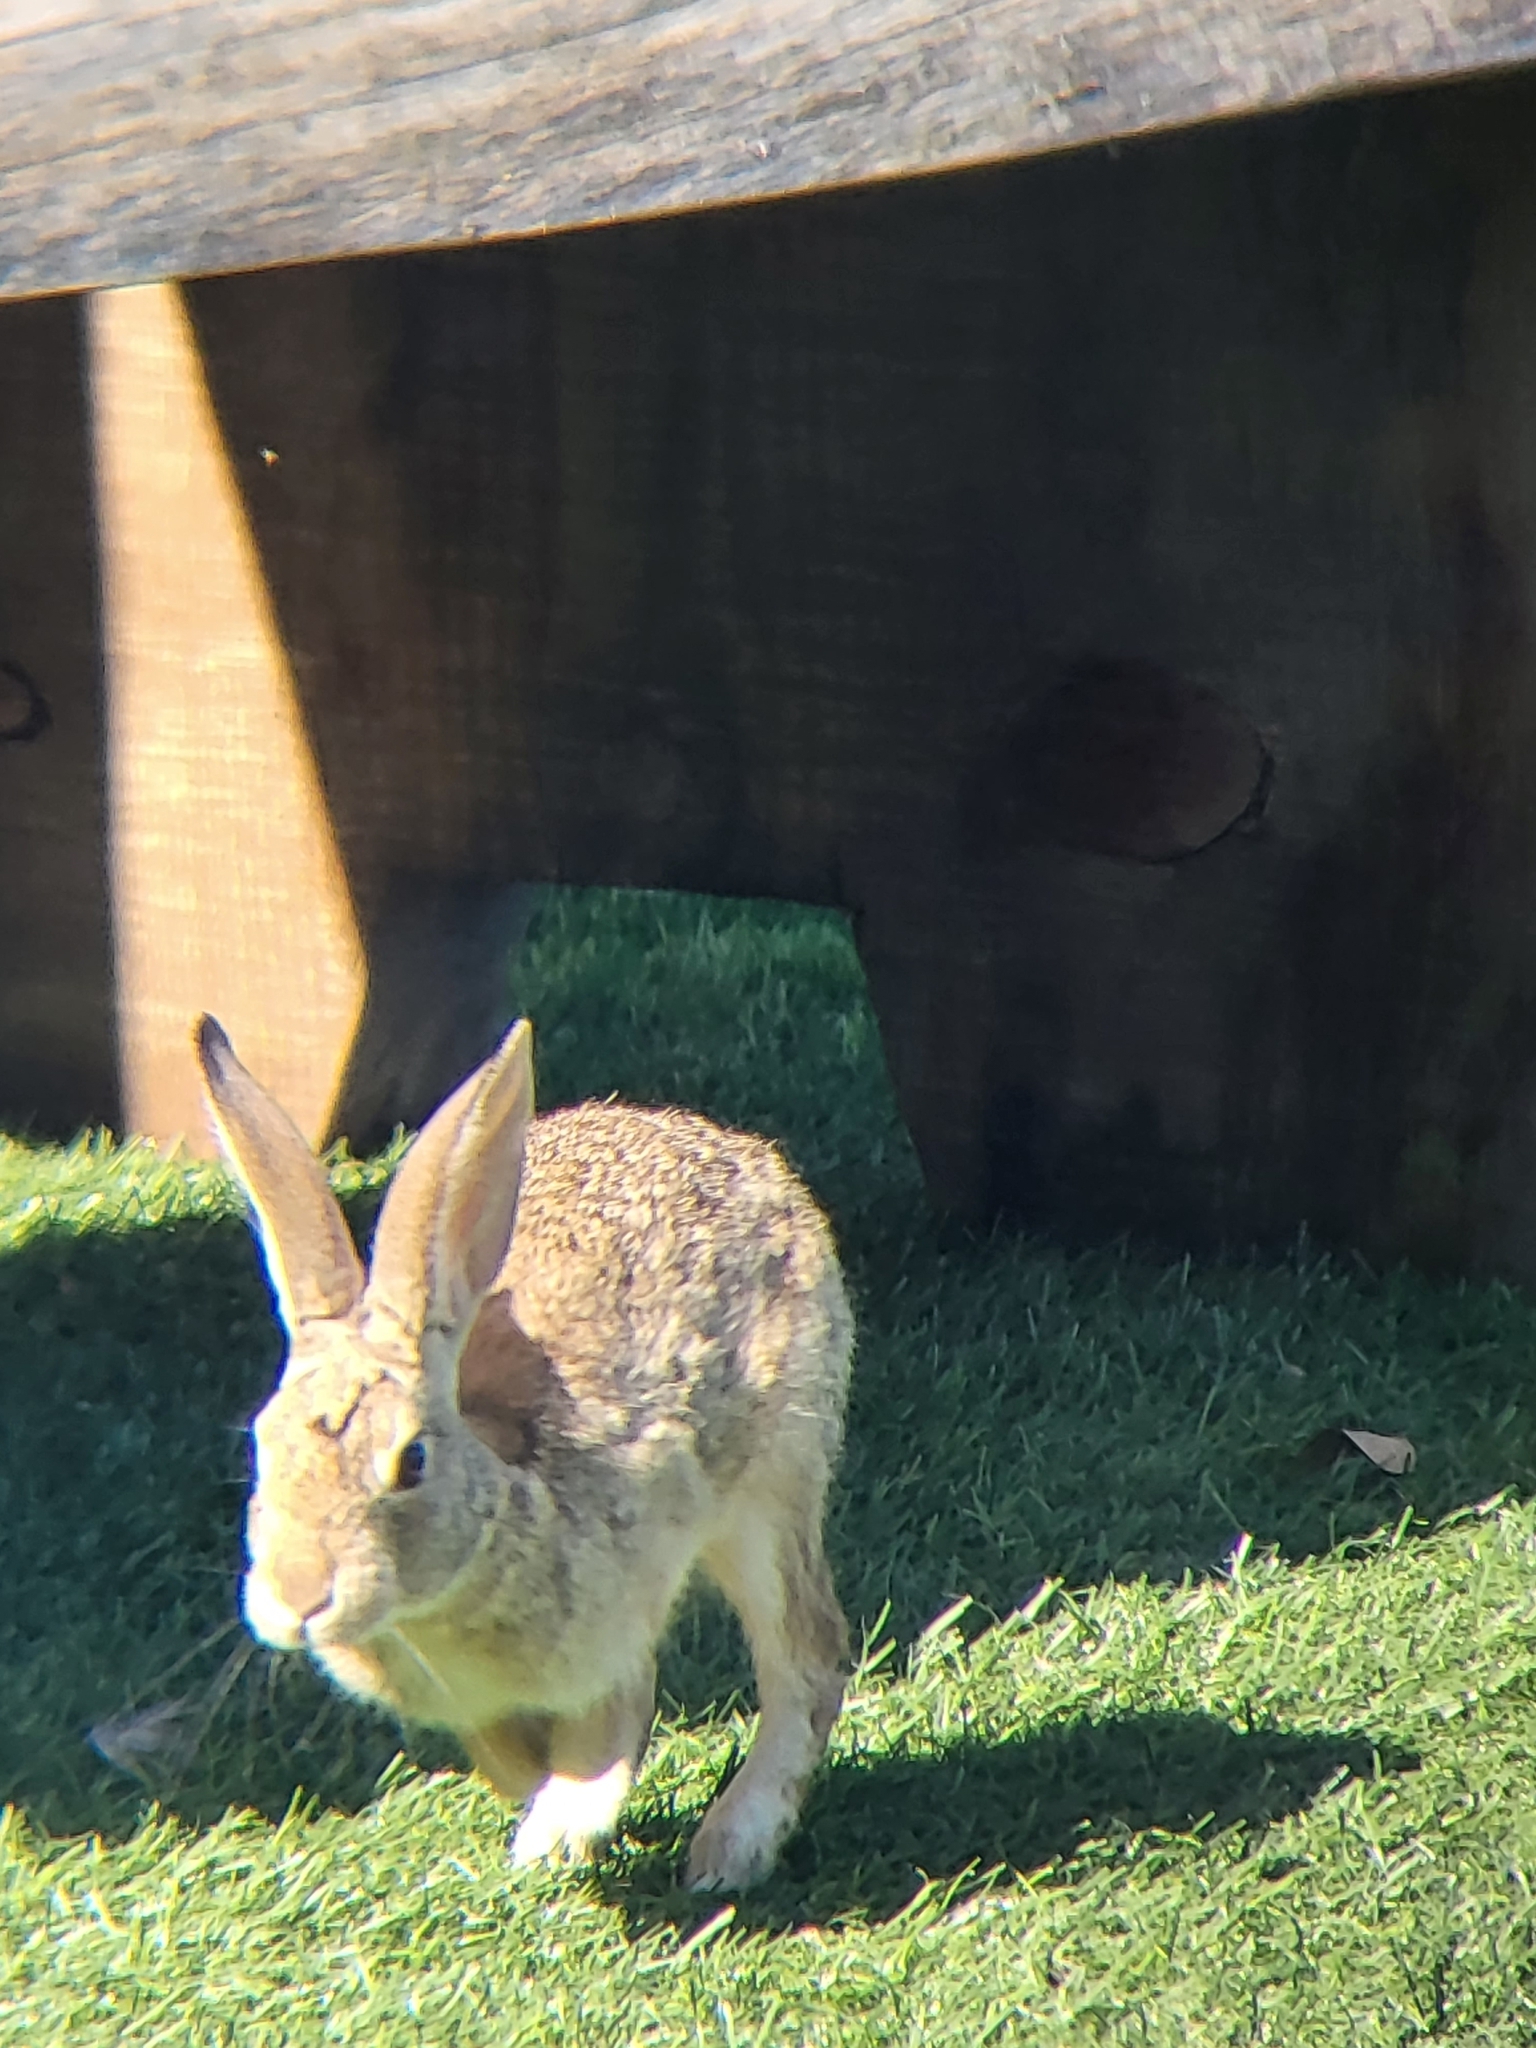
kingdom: Animalia
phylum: Chordata
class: Mammalia
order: Lagomorpha
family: Leporidae
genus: Sylvilagus
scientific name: Sylvilagus audubonii
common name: Desert cottontail
